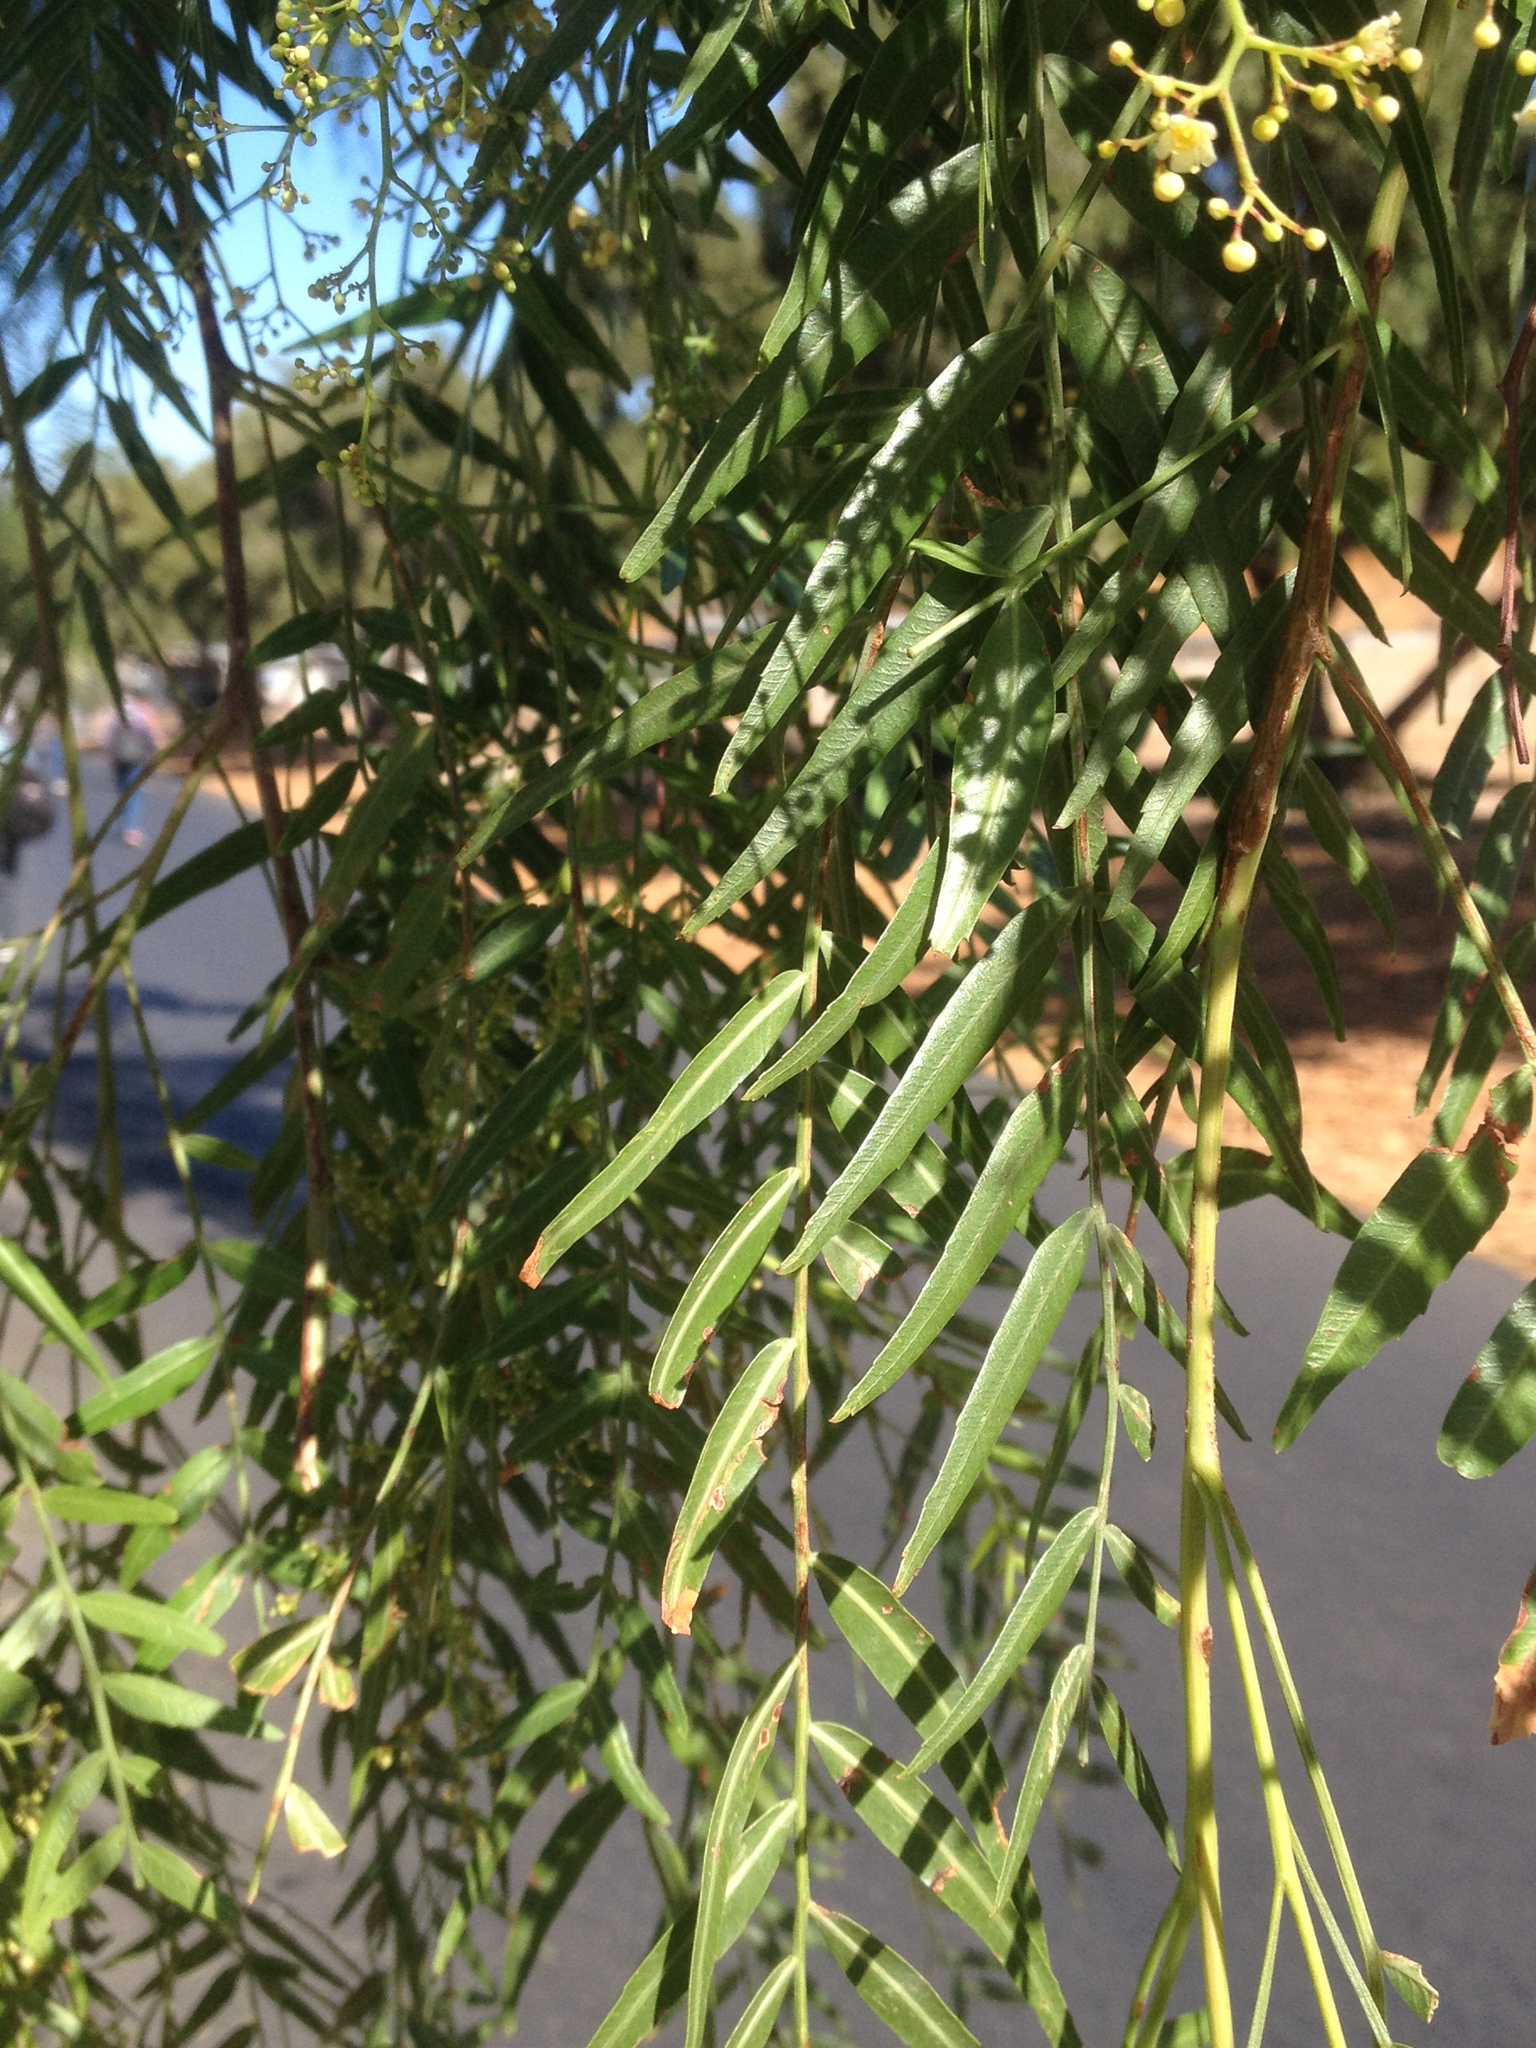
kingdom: Plantae
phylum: Tracheophyta
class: Magnoliopsida
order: Sapindales
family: Anacardiaceae
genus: Schinus
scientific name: Schinus molle
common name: Peruvian peppertree
